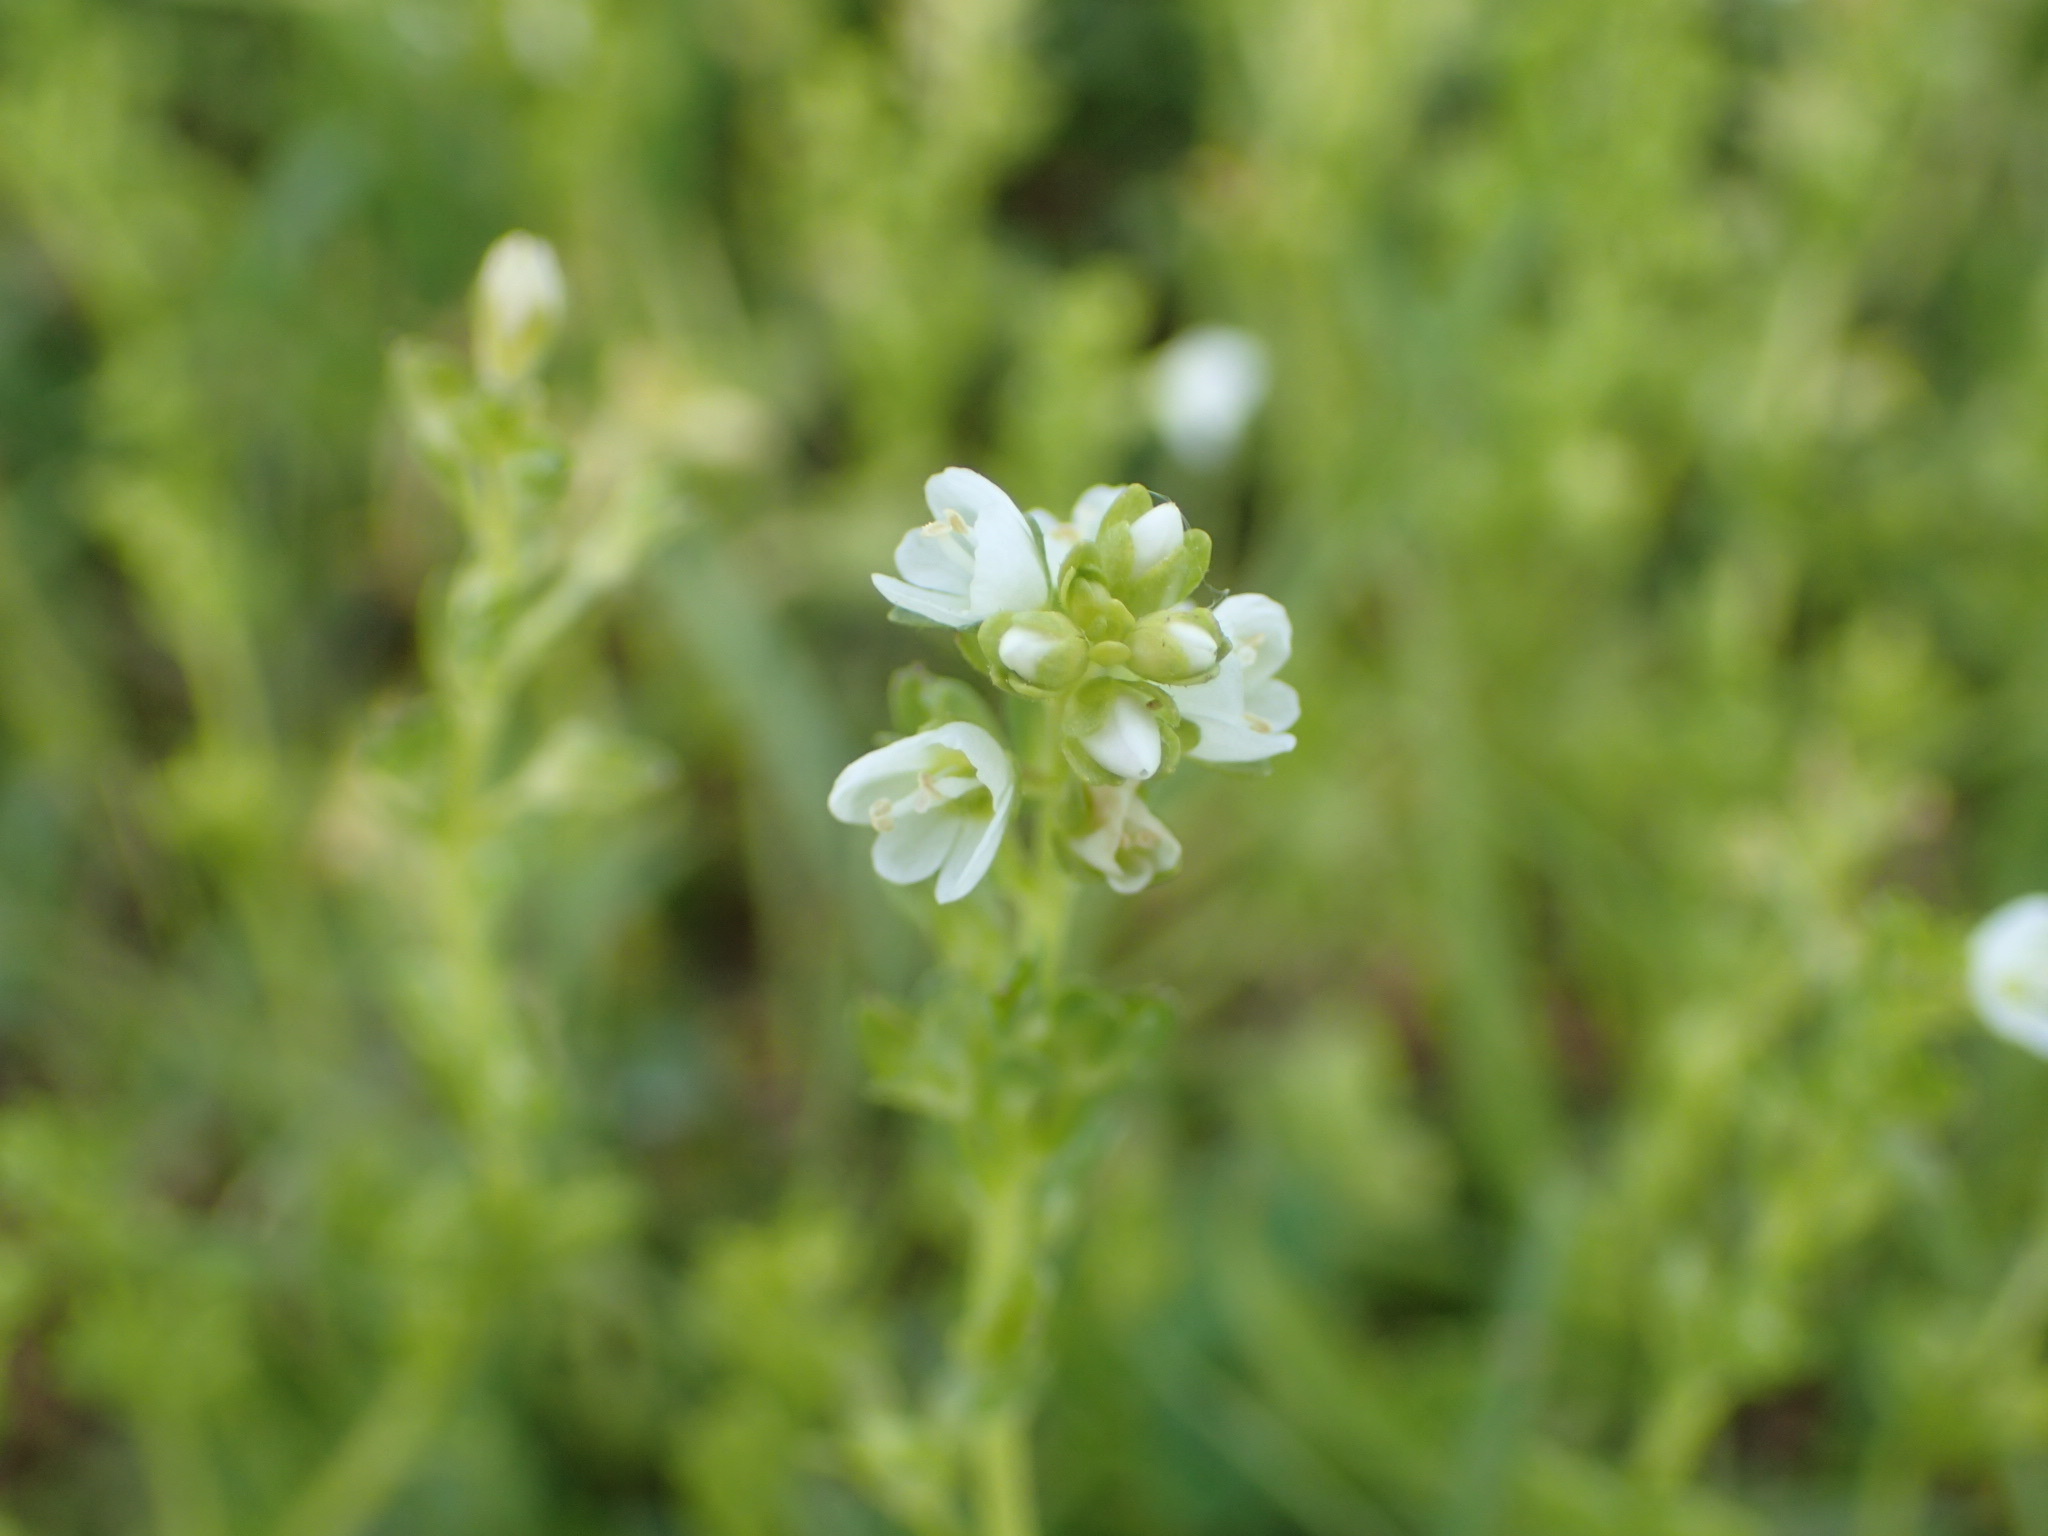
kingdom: Plantae
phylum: Tracheophyta
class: Magnoliopsida
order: Lamiales
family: Plantaginaceae
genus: Veronica
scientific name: Veronica serpyllifolia
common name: Thyme-leaved speedwell
